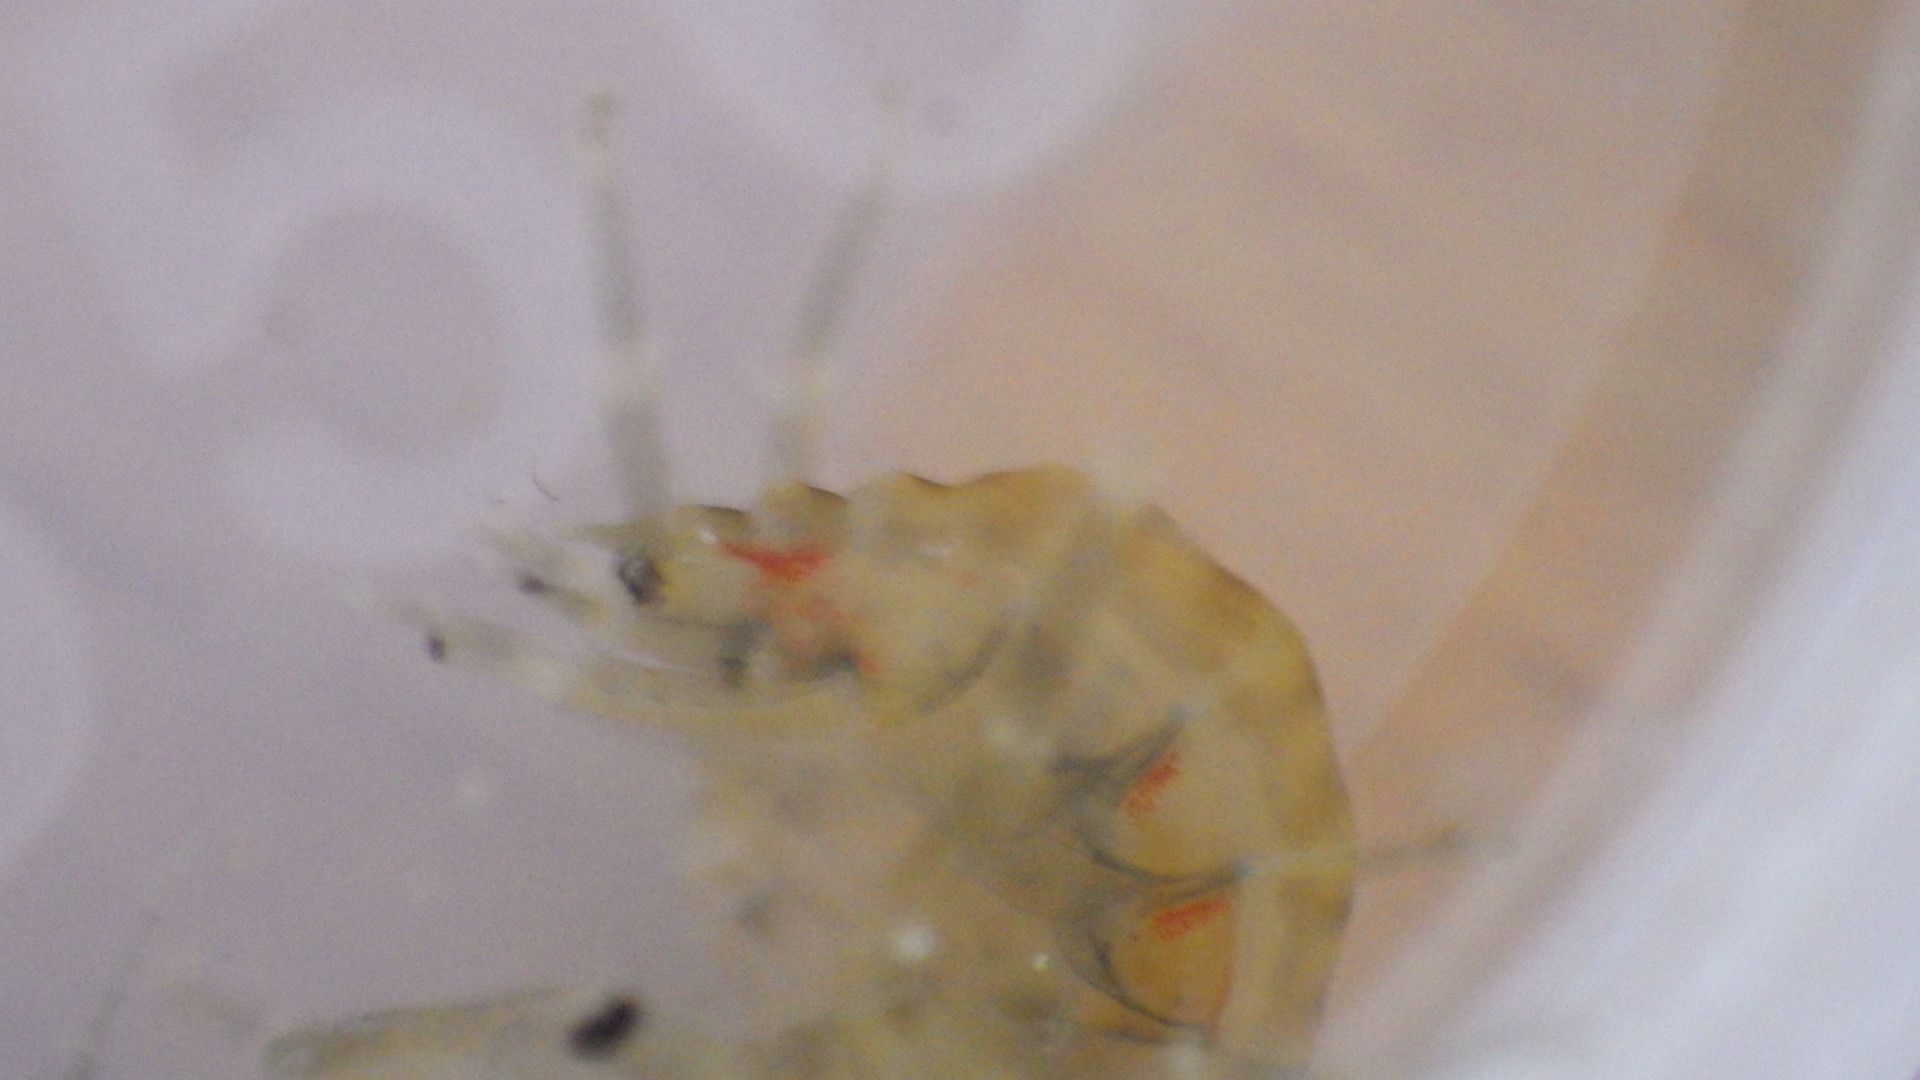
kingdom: Animalia
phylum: Arthropoda
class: Malacostraca
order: Amphipoda
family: Gammaridae
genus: Gammarus
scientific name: Gammarus fasciatus
